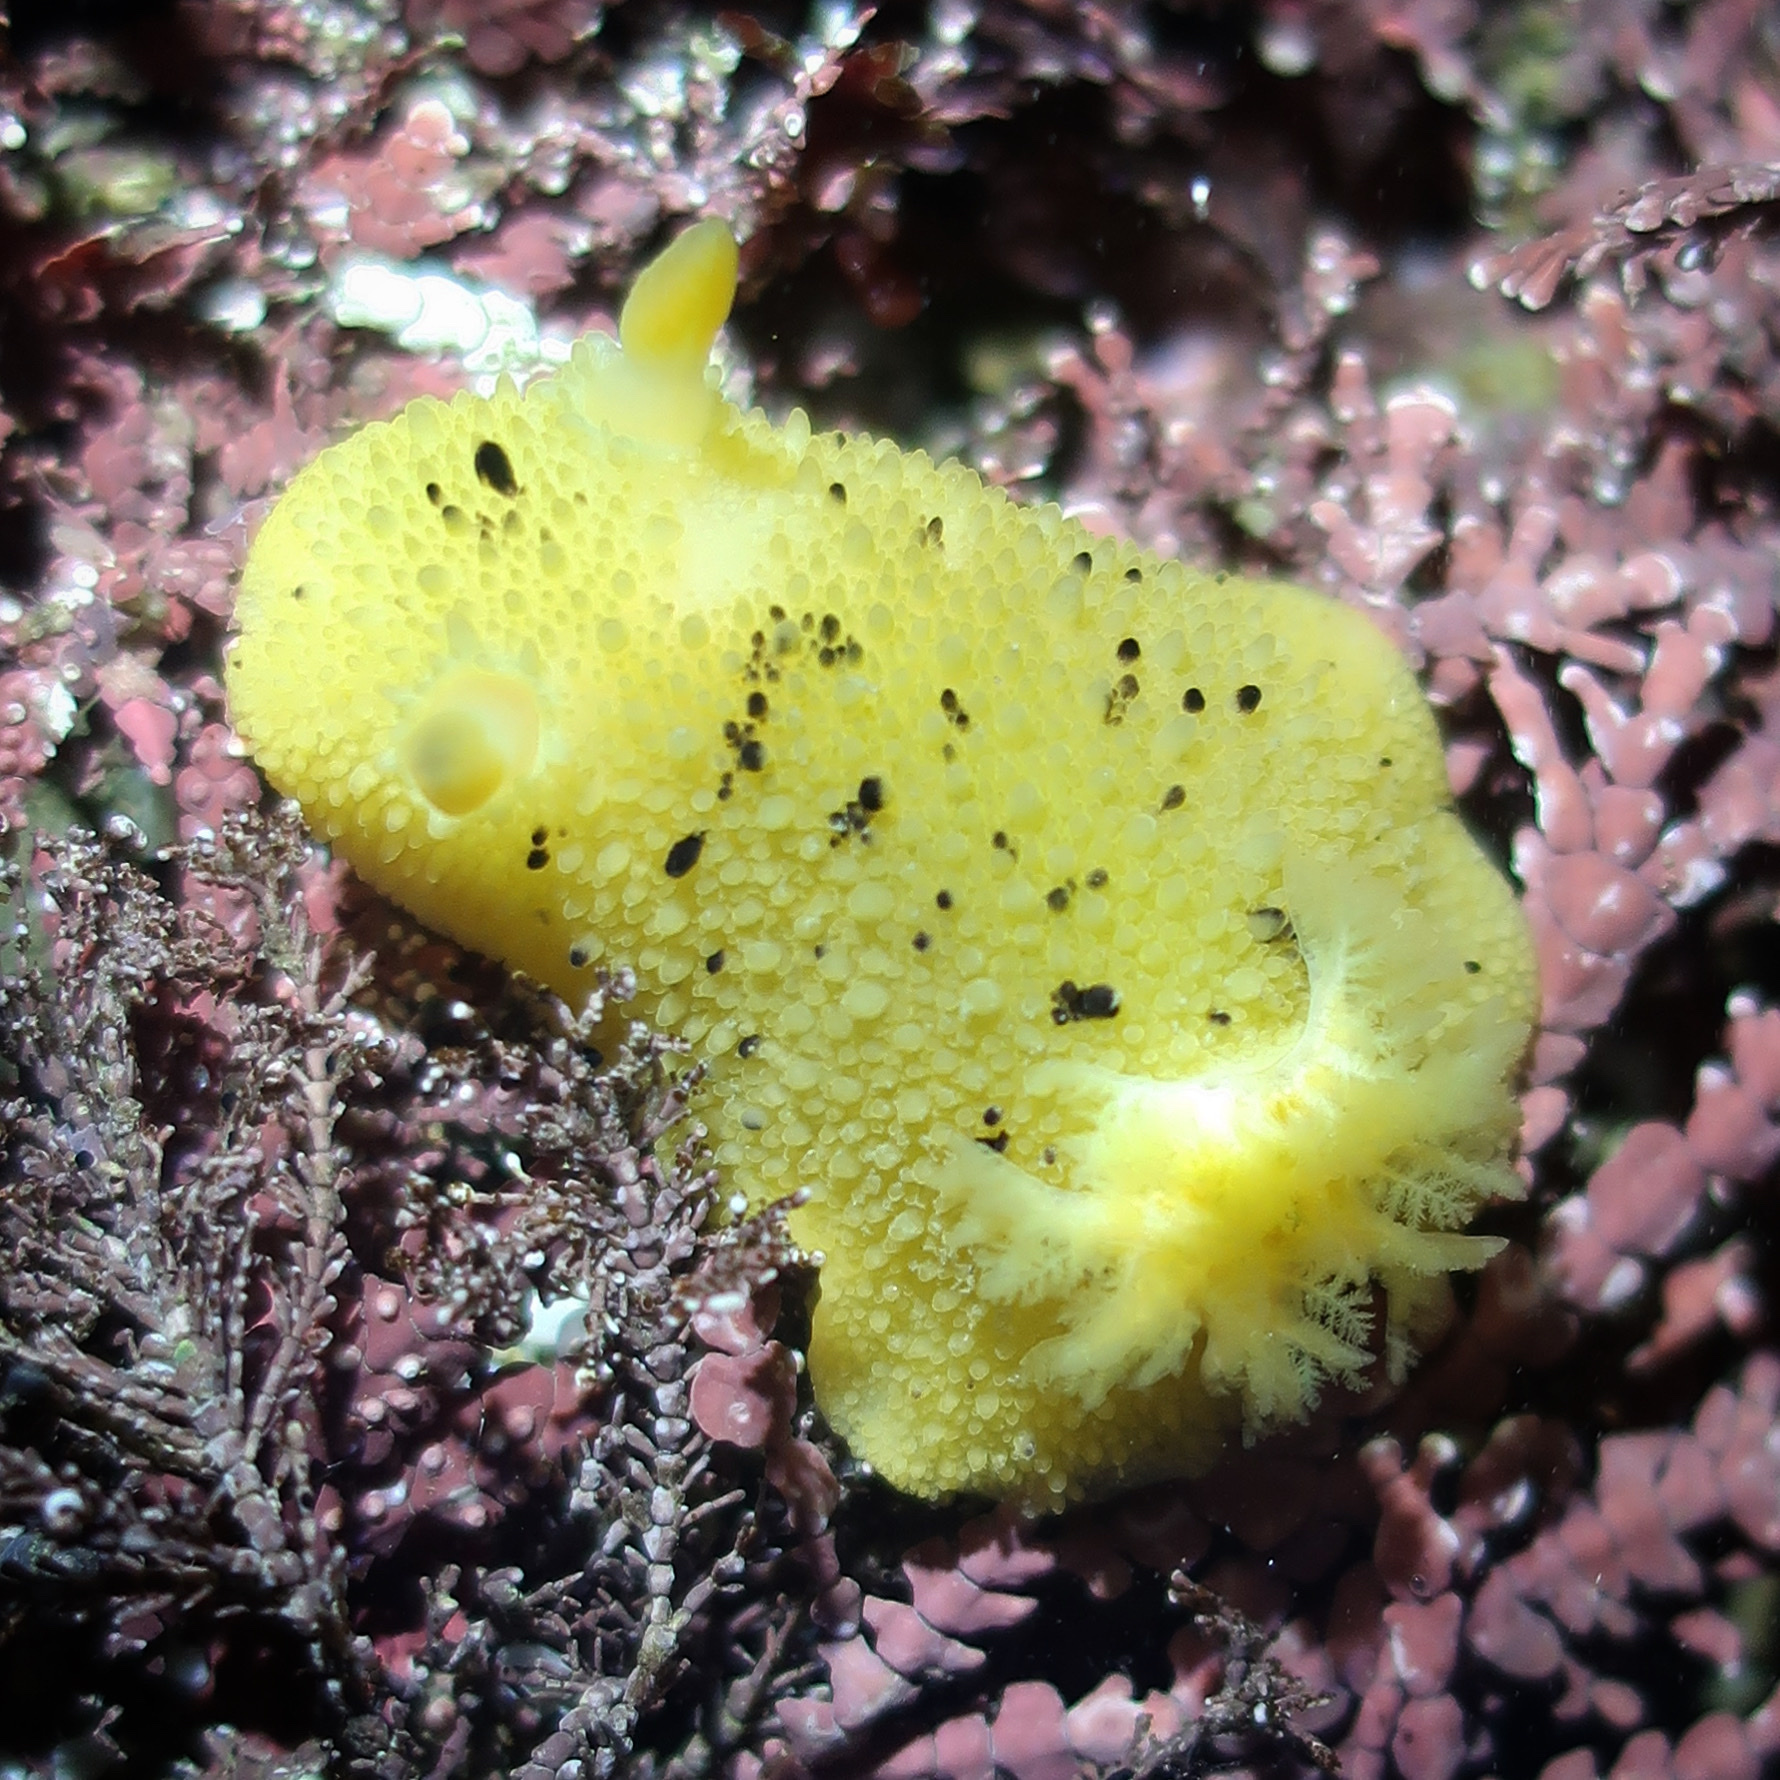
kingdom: Animalia
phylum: Mollusca
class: Gastropoda
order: Nudibranchia
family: Dorididae
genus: Doris
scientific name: Doris montereyensis
